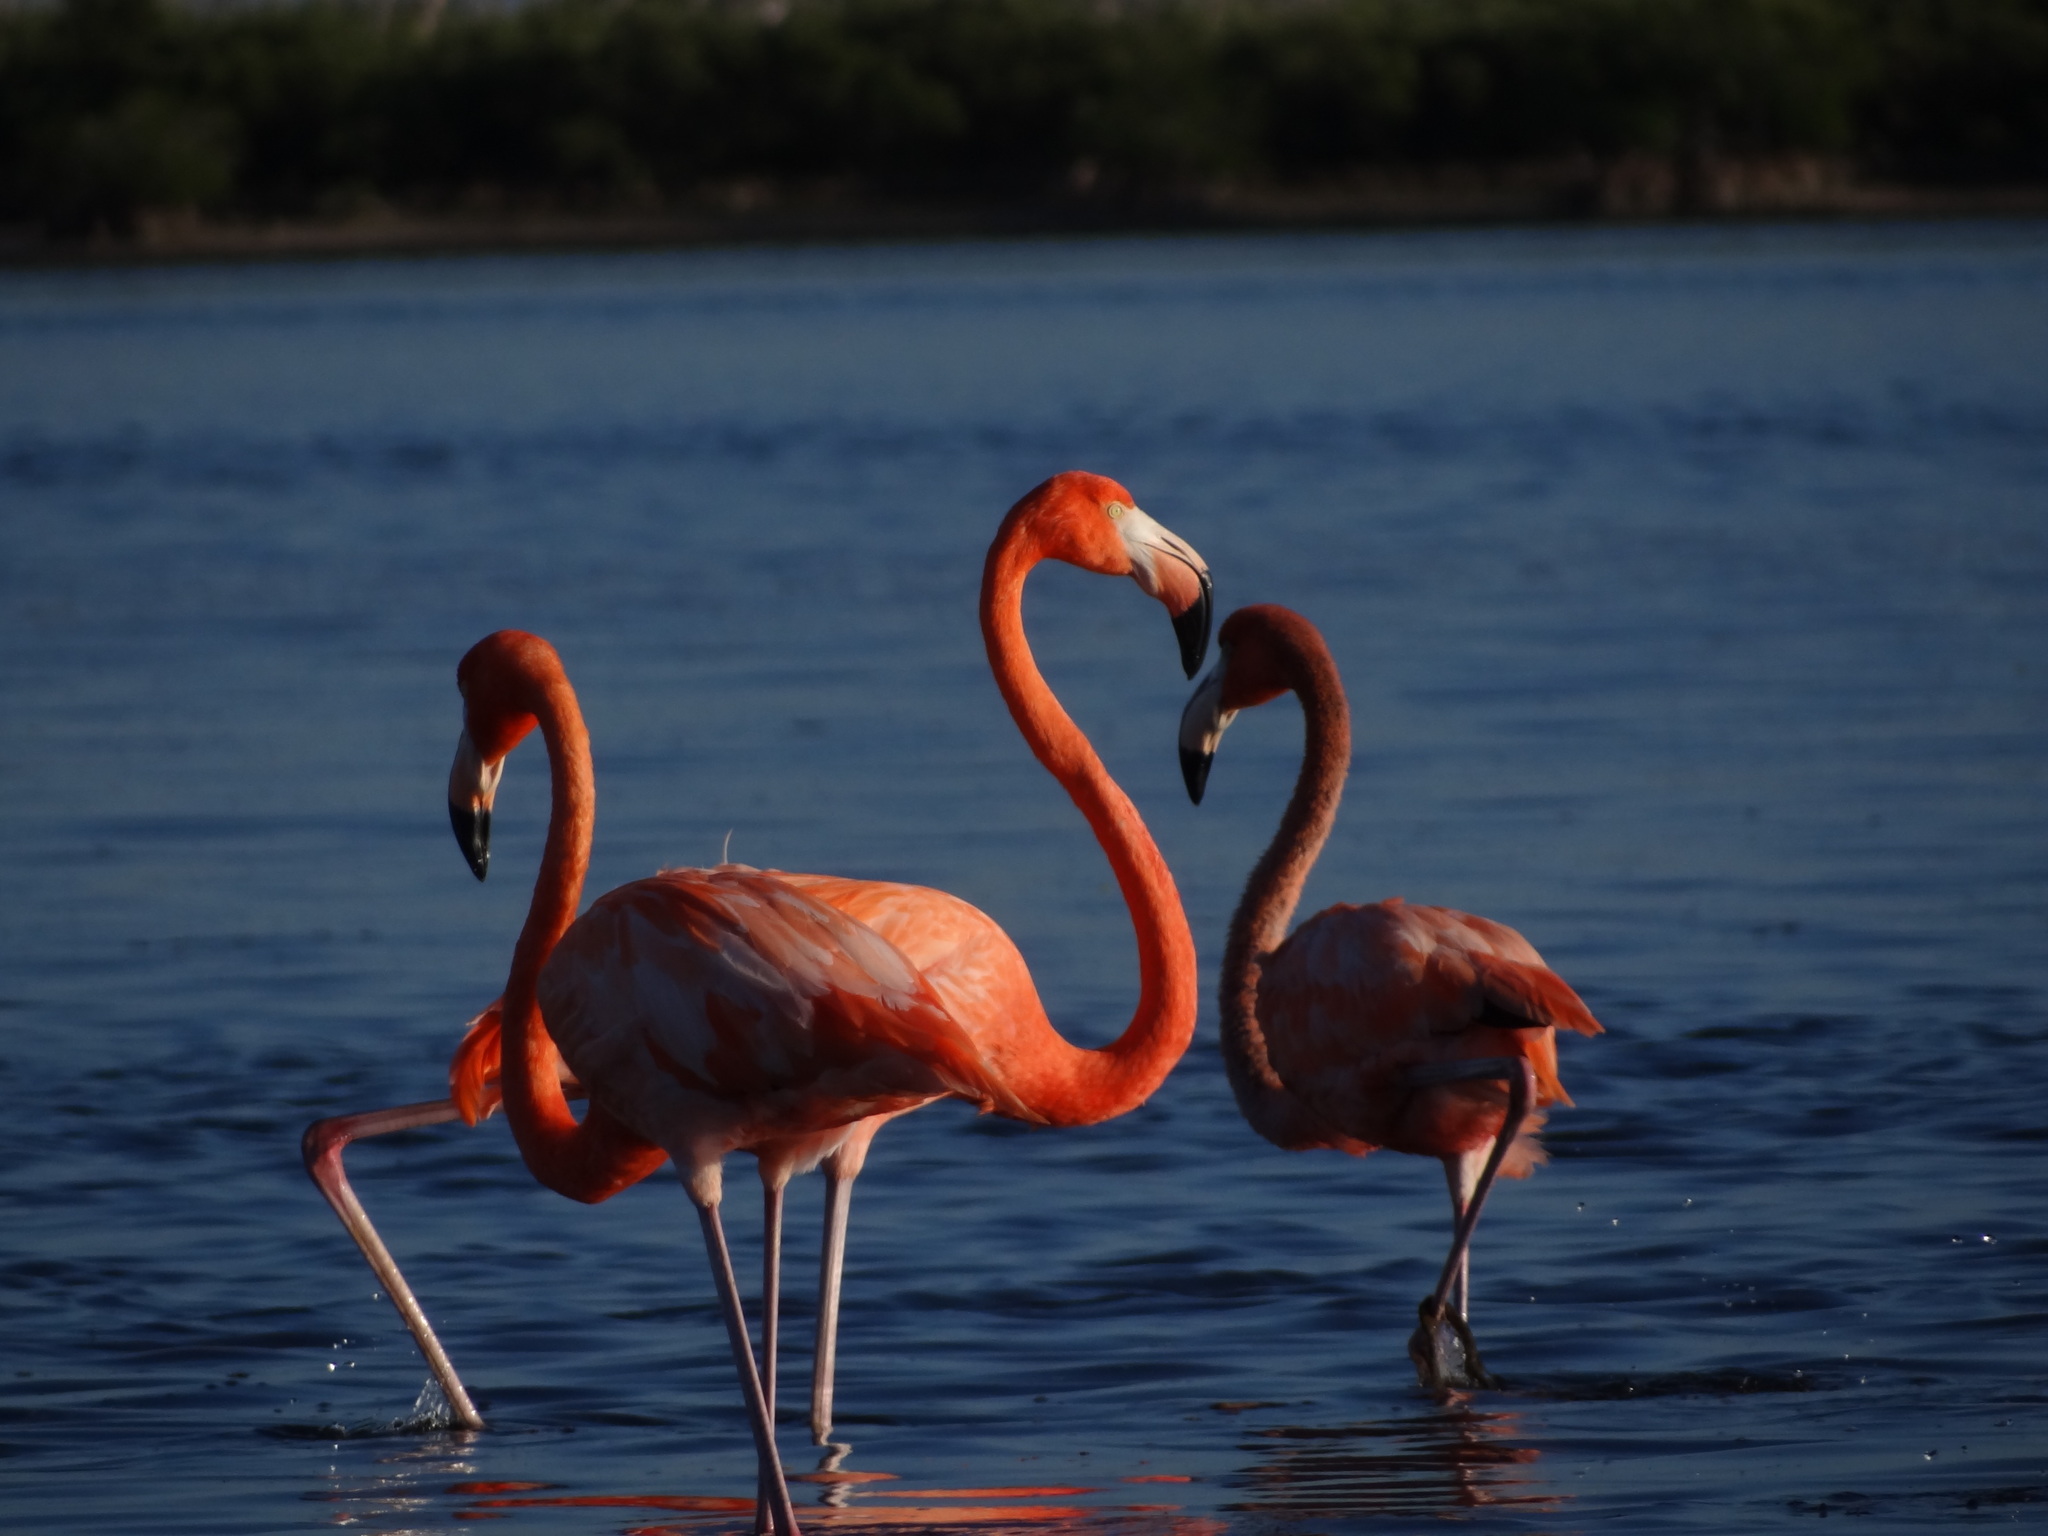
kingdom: Animalia
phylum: Chordata
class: Aves
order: Phoenicopteriformes
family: Phoenicopteridae
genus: Phoenicopterus
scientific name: Phoenicopterus ruber
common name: American flamingo
